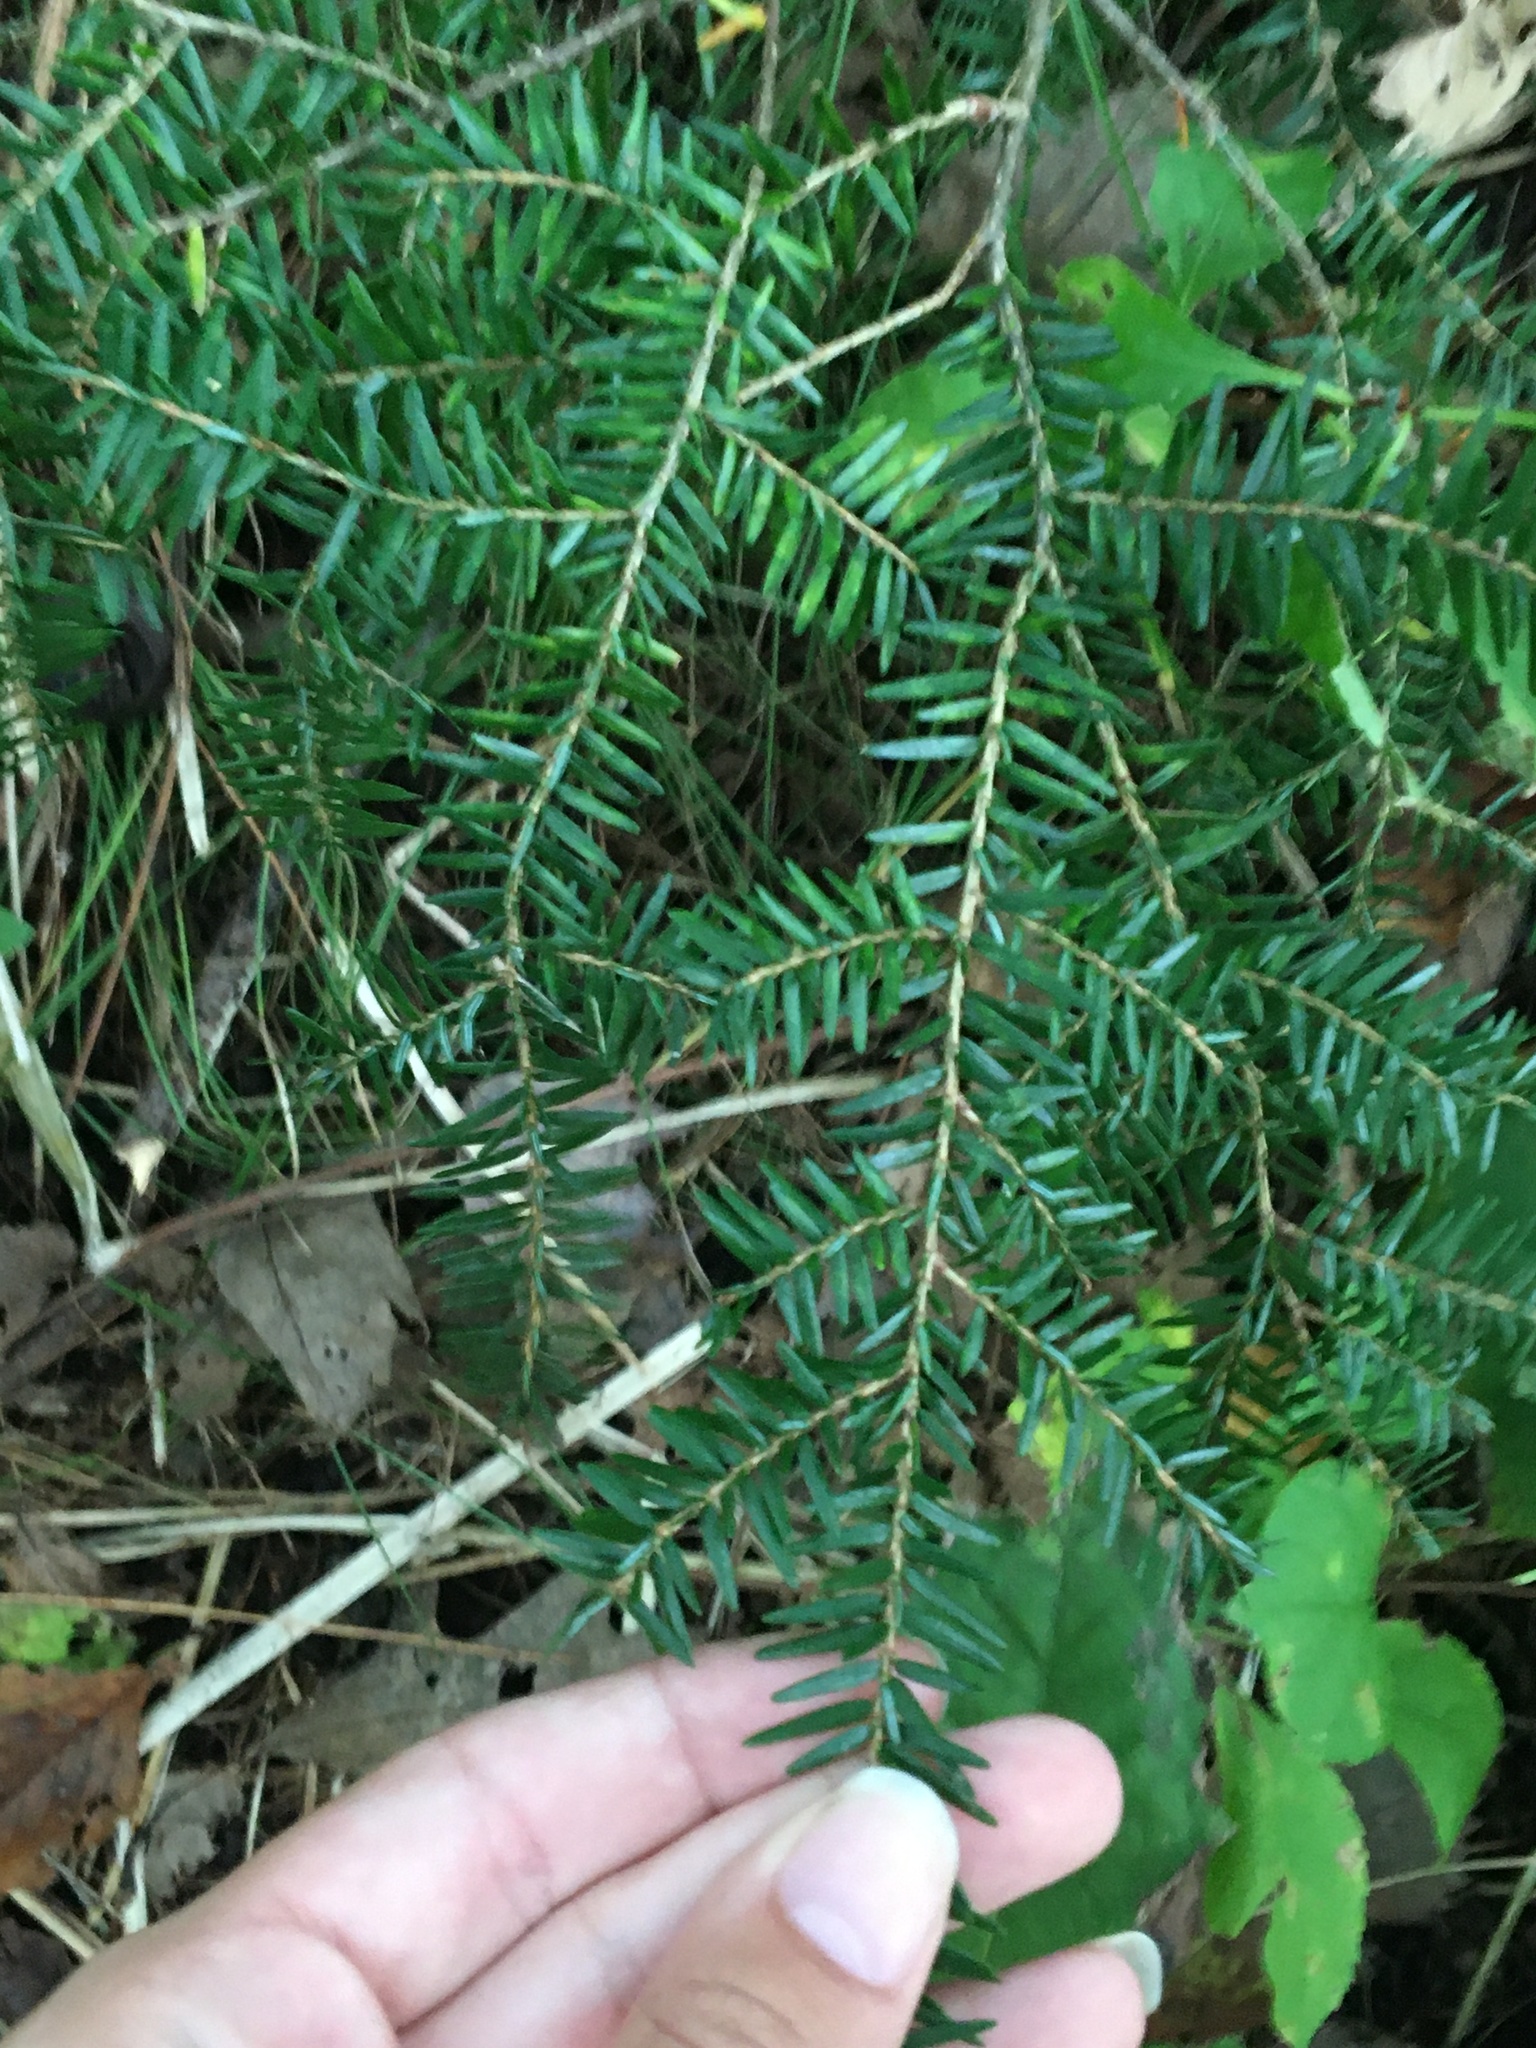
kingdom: Plantae
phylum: Tracheophyta
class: Pinopsida
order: Pinales
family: Pinaceae
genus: Tsuga
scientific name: Tsuga canadensis
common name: Eastern hemlock
